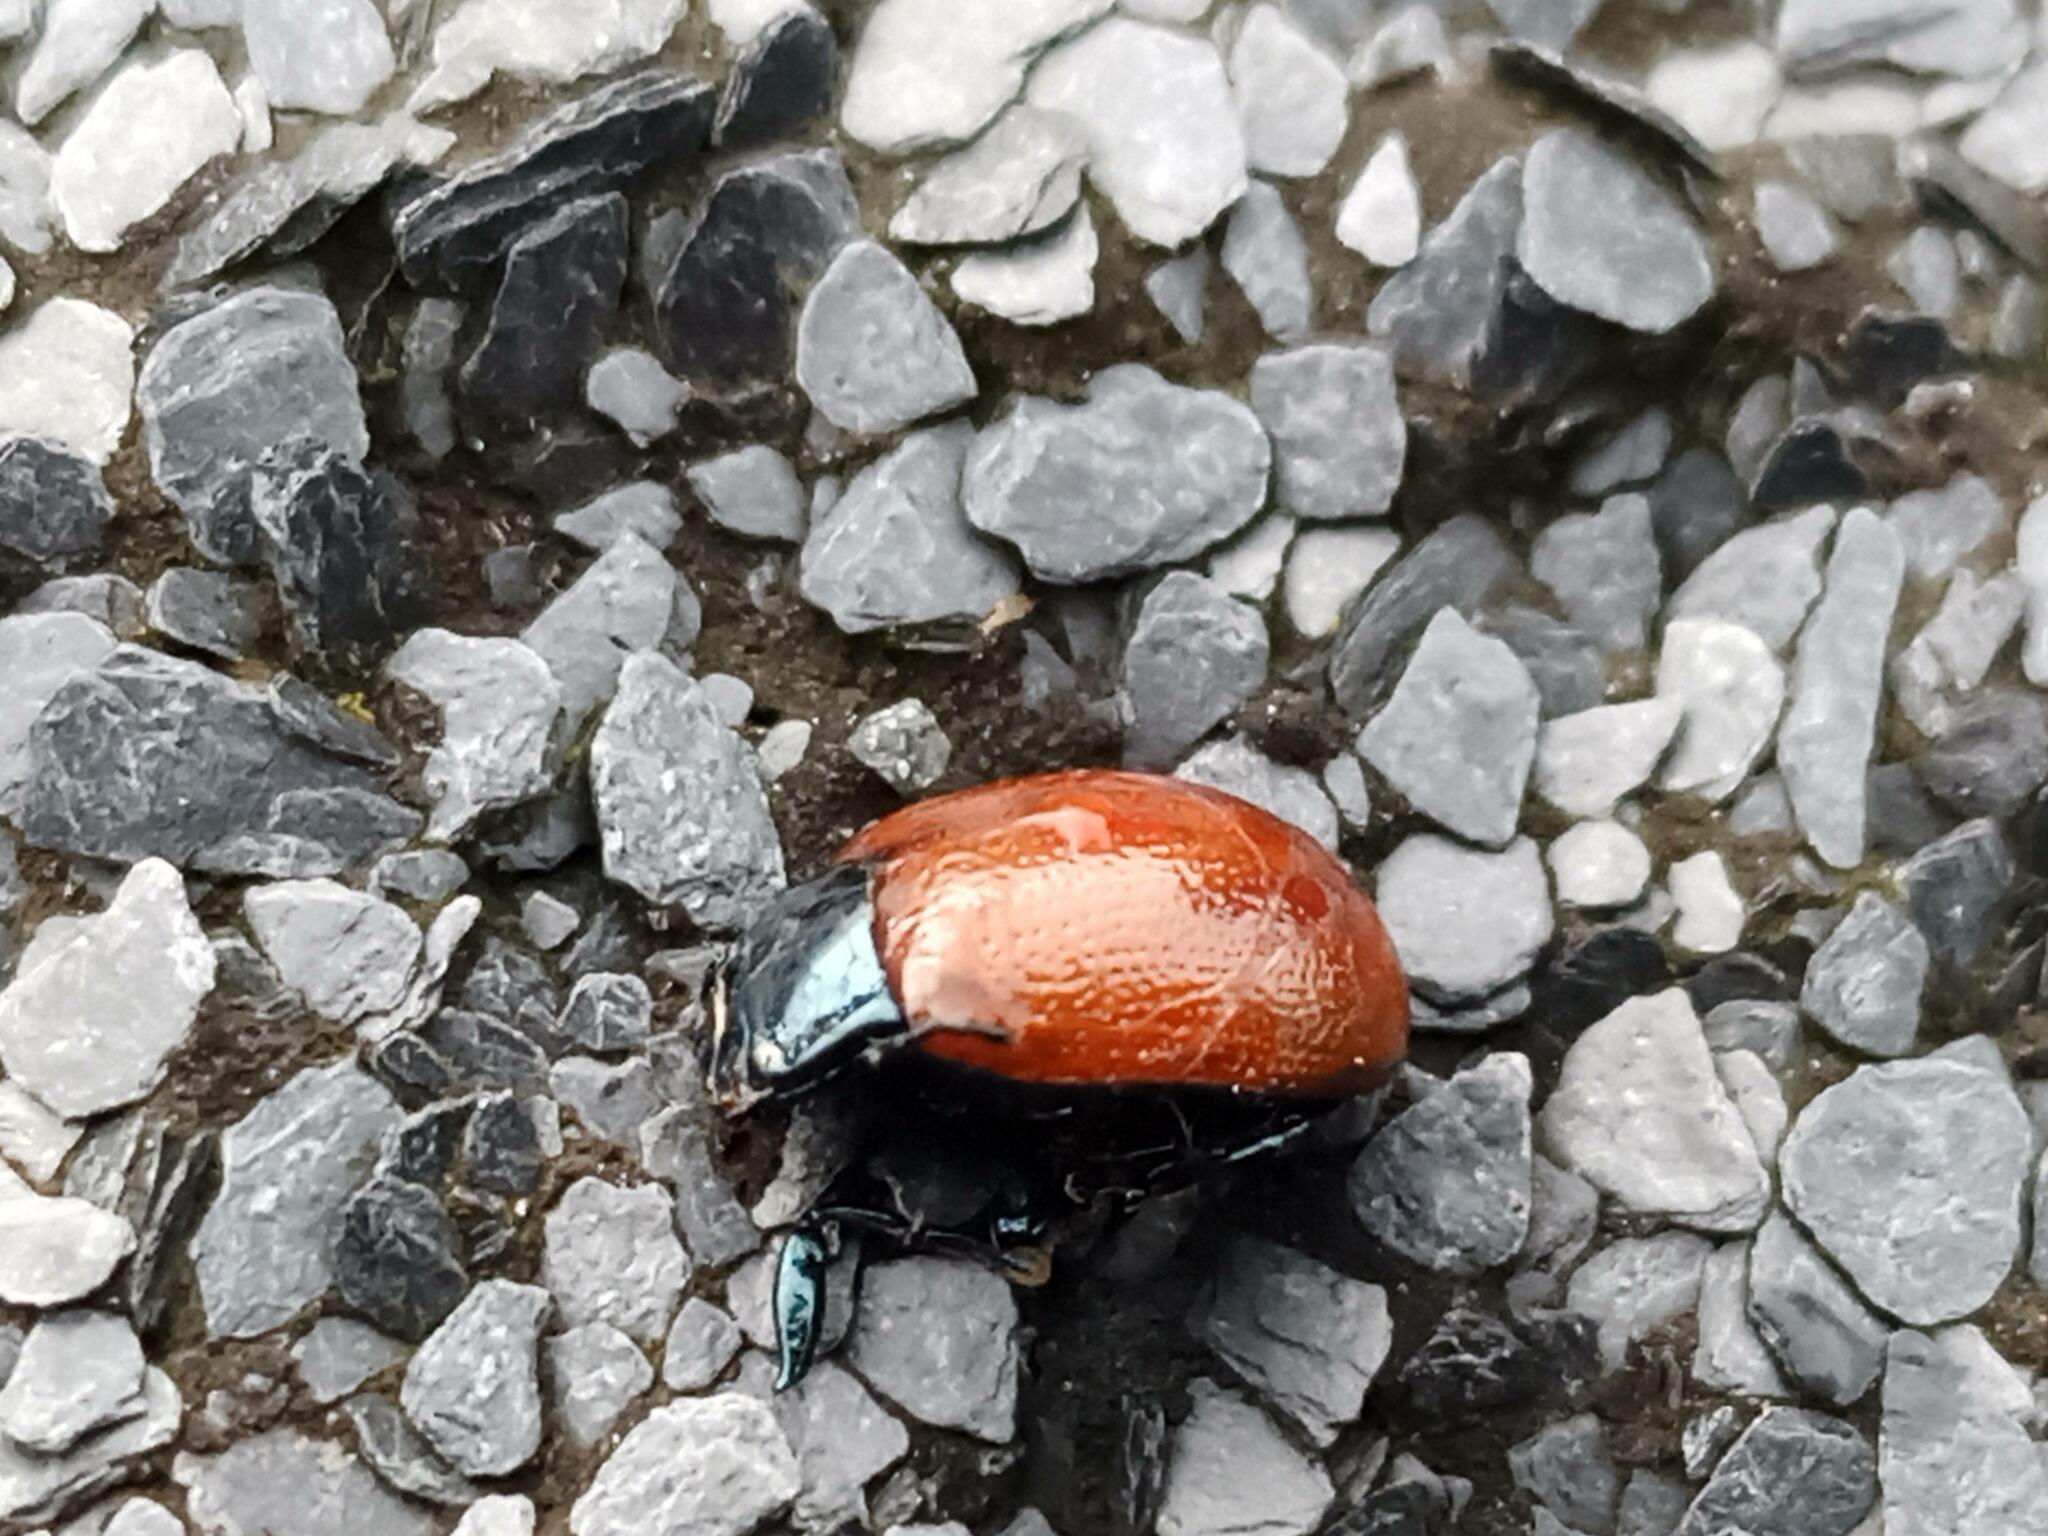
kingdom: Animalia
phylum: Arthropoda
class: Insecta
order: Coleoptera
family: Chrysomelidae
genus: Chrysolina
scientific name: Chrysolina lucida
